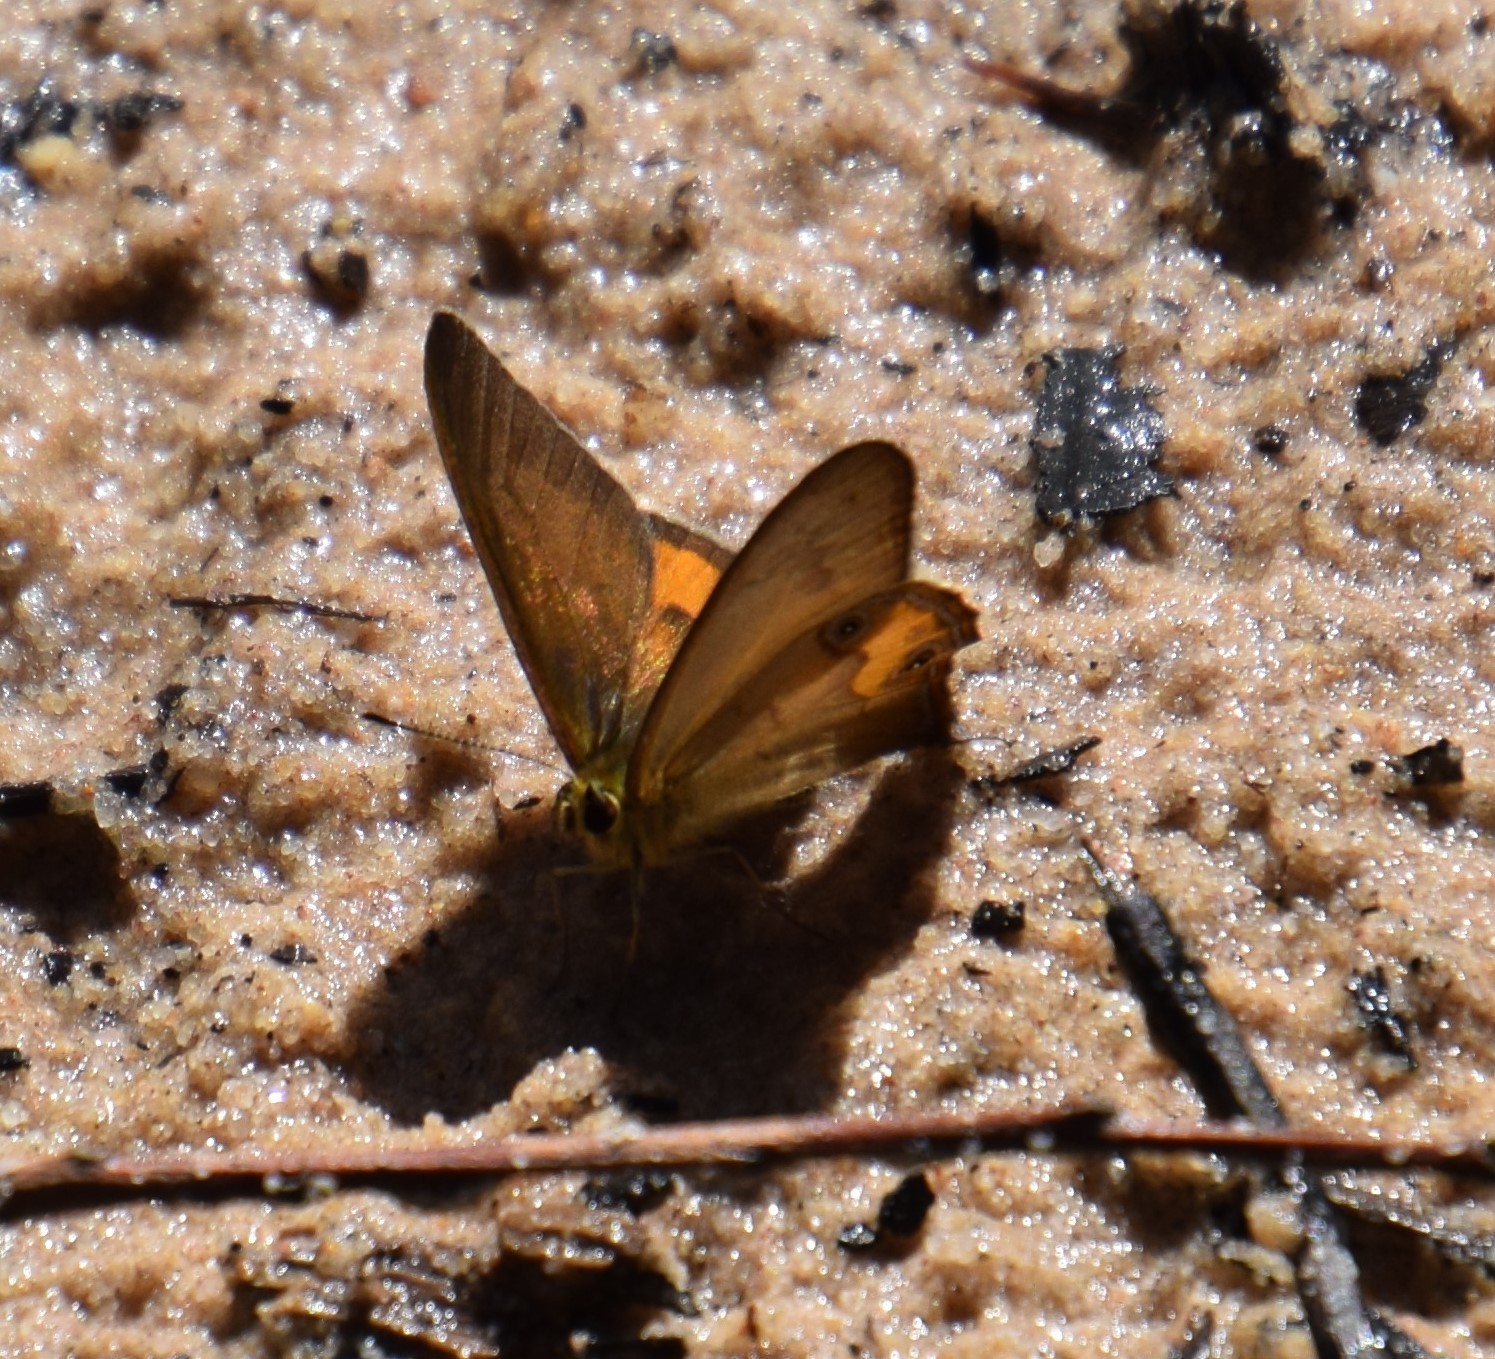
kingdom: Animalia
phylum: Arthropoda
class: Insecta
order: Lepidoptera
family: Nymphalidae
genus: Hypocysta
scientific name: Hypocysta metirius
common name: Brown ringlet
